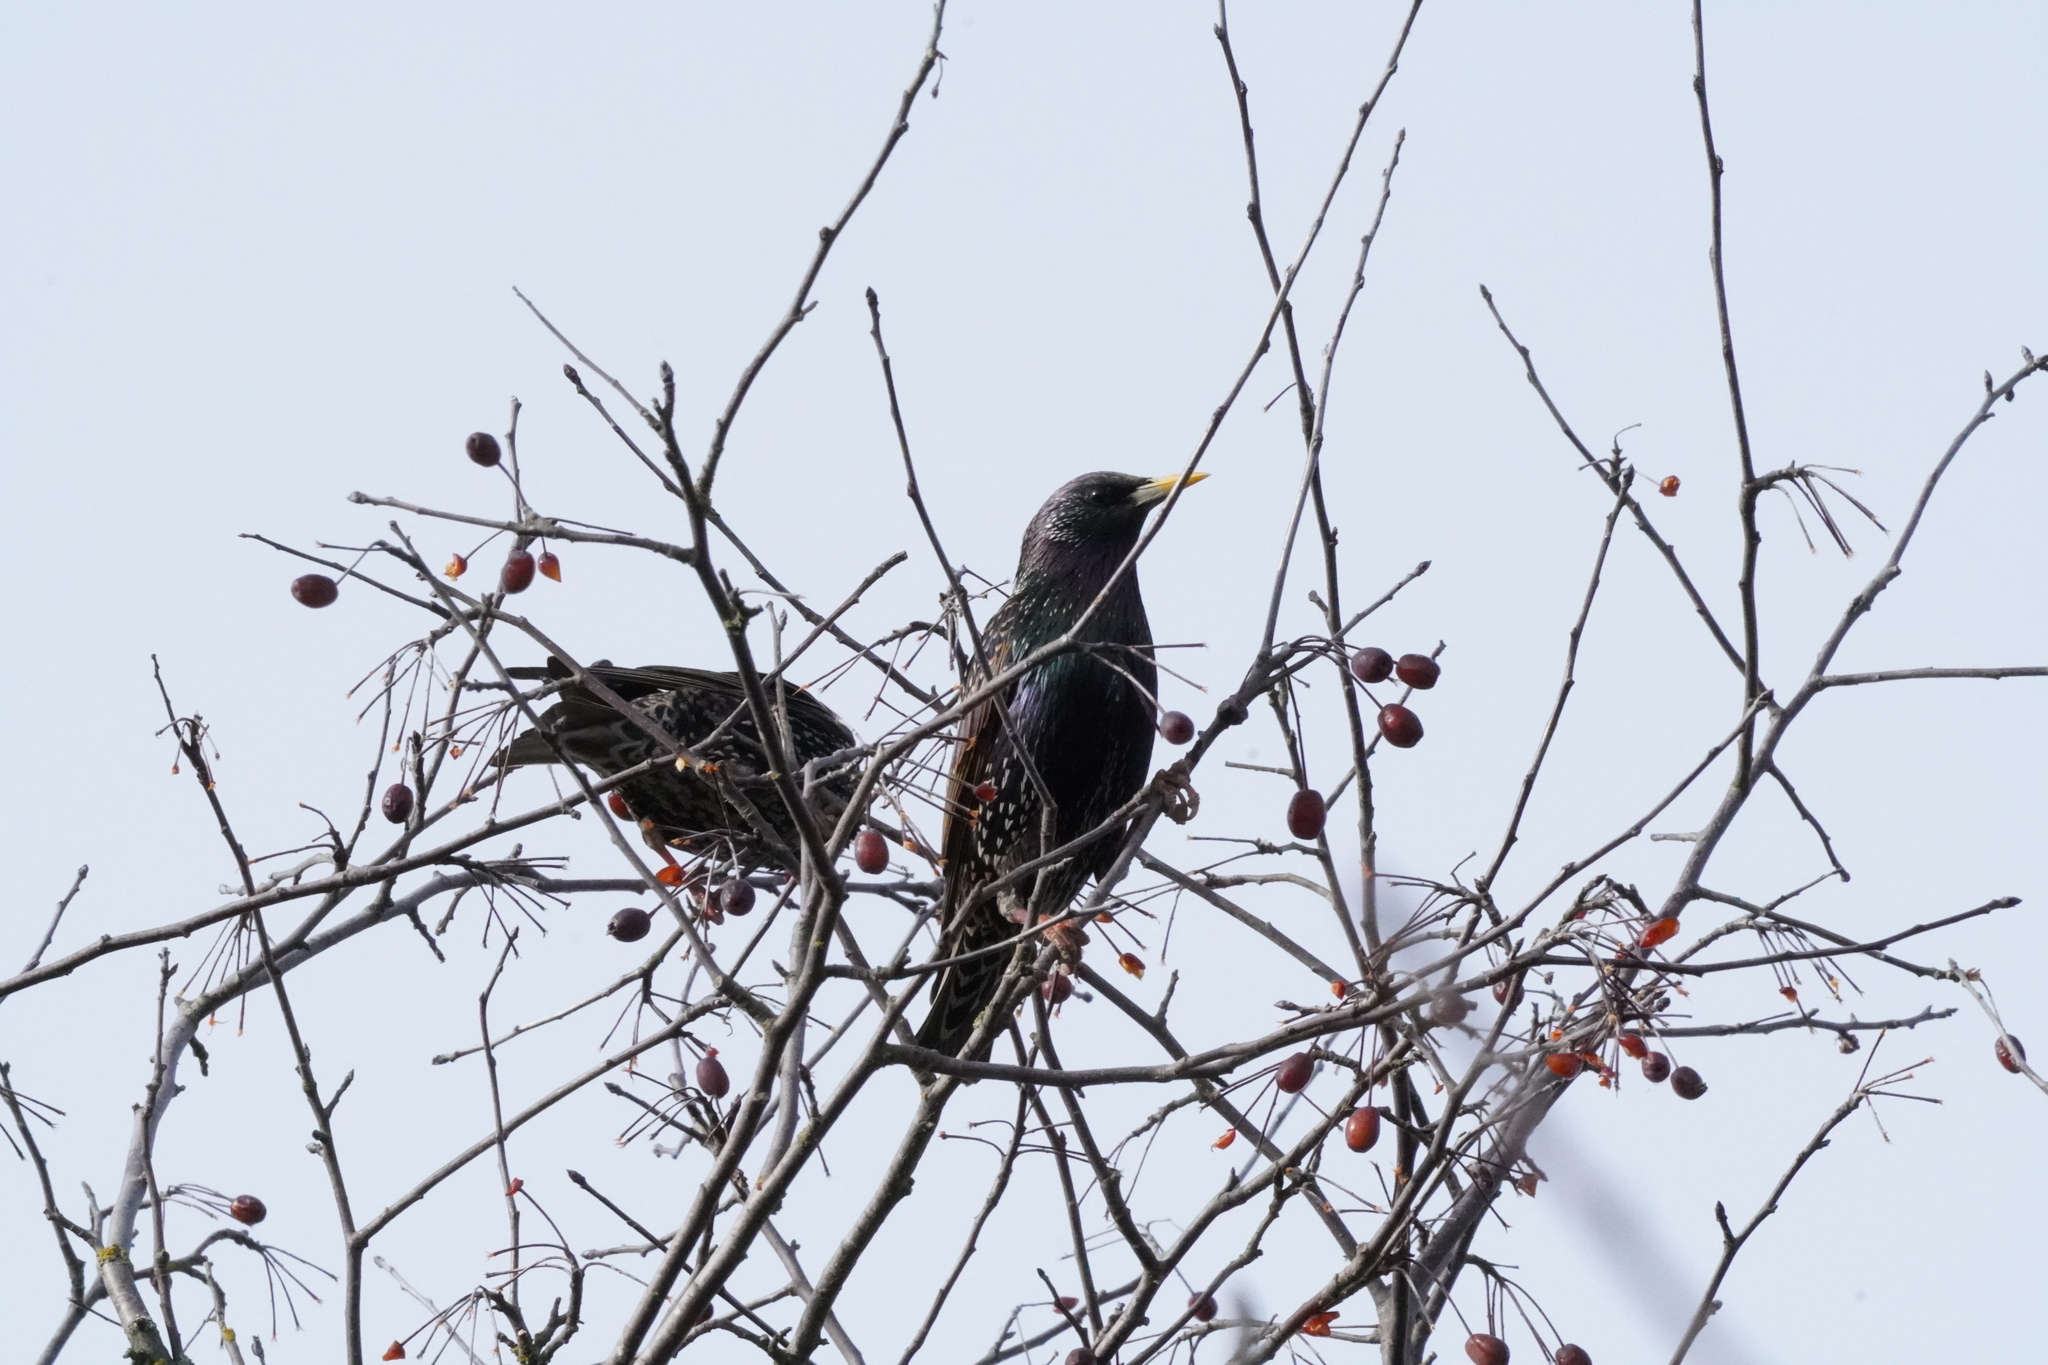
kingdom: Animalia
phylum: Chordata
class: Aves
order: Passeriformes
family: Sturnidae
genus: Sturnus
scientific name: Sturnus vulgaris
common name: Common starling
